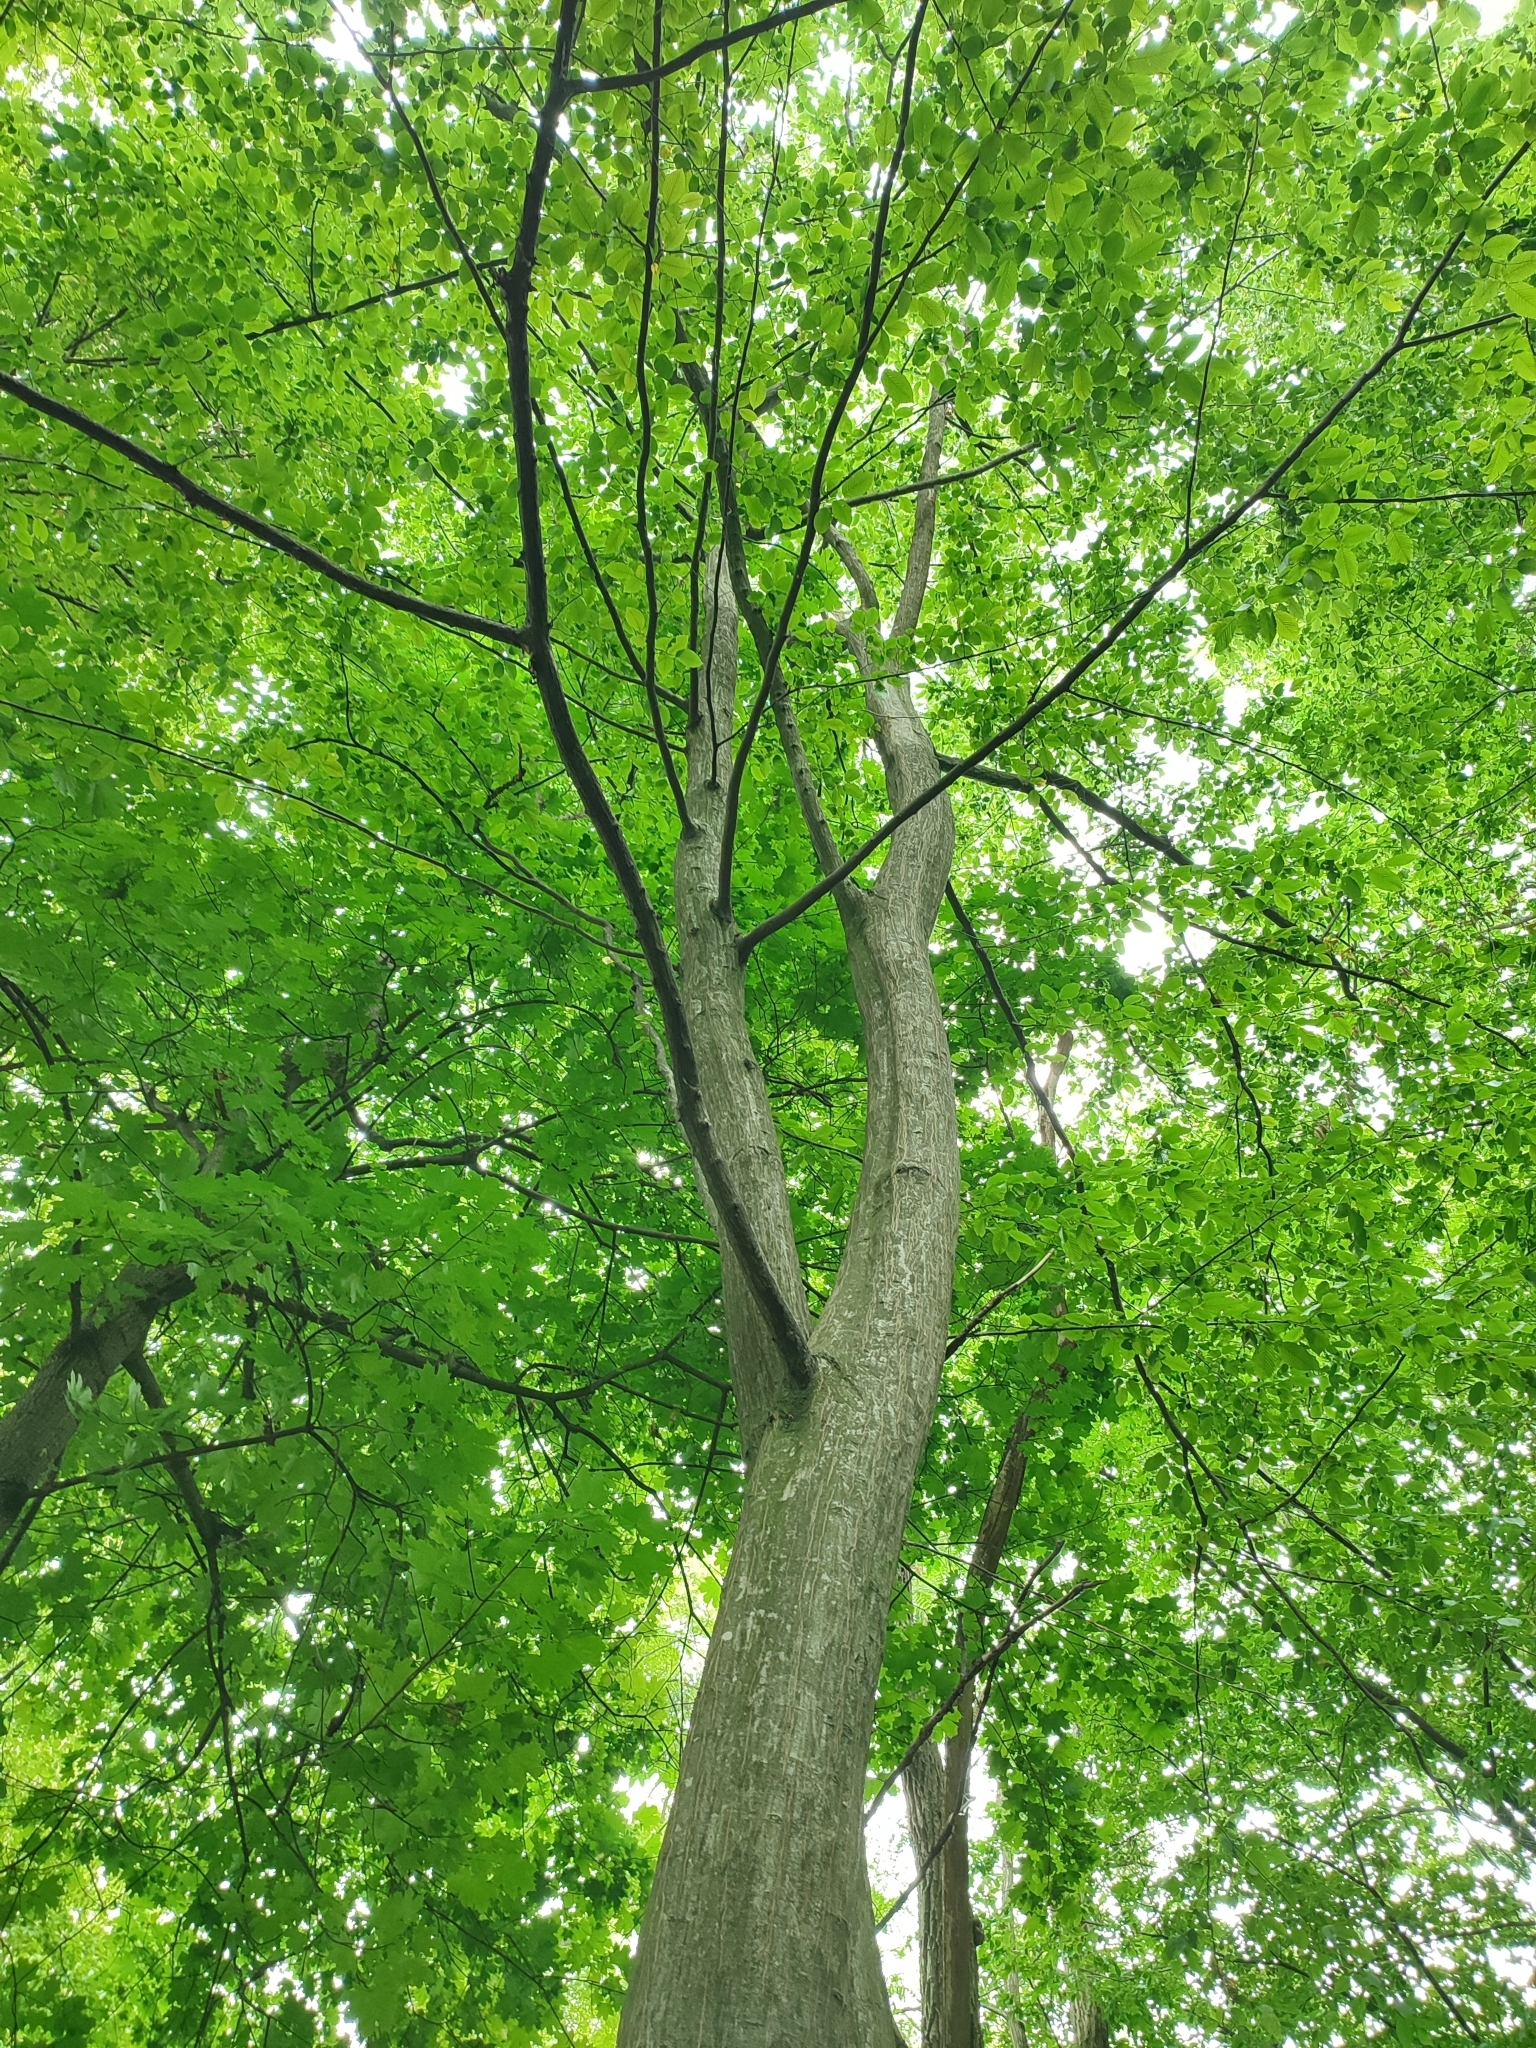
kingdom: Plantae
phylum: Tracheophyta
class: Magnoliopsida
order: Fagales
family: Betulaceae
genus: Carpinus
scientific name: Carpinus betulus
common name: Hornbeam
